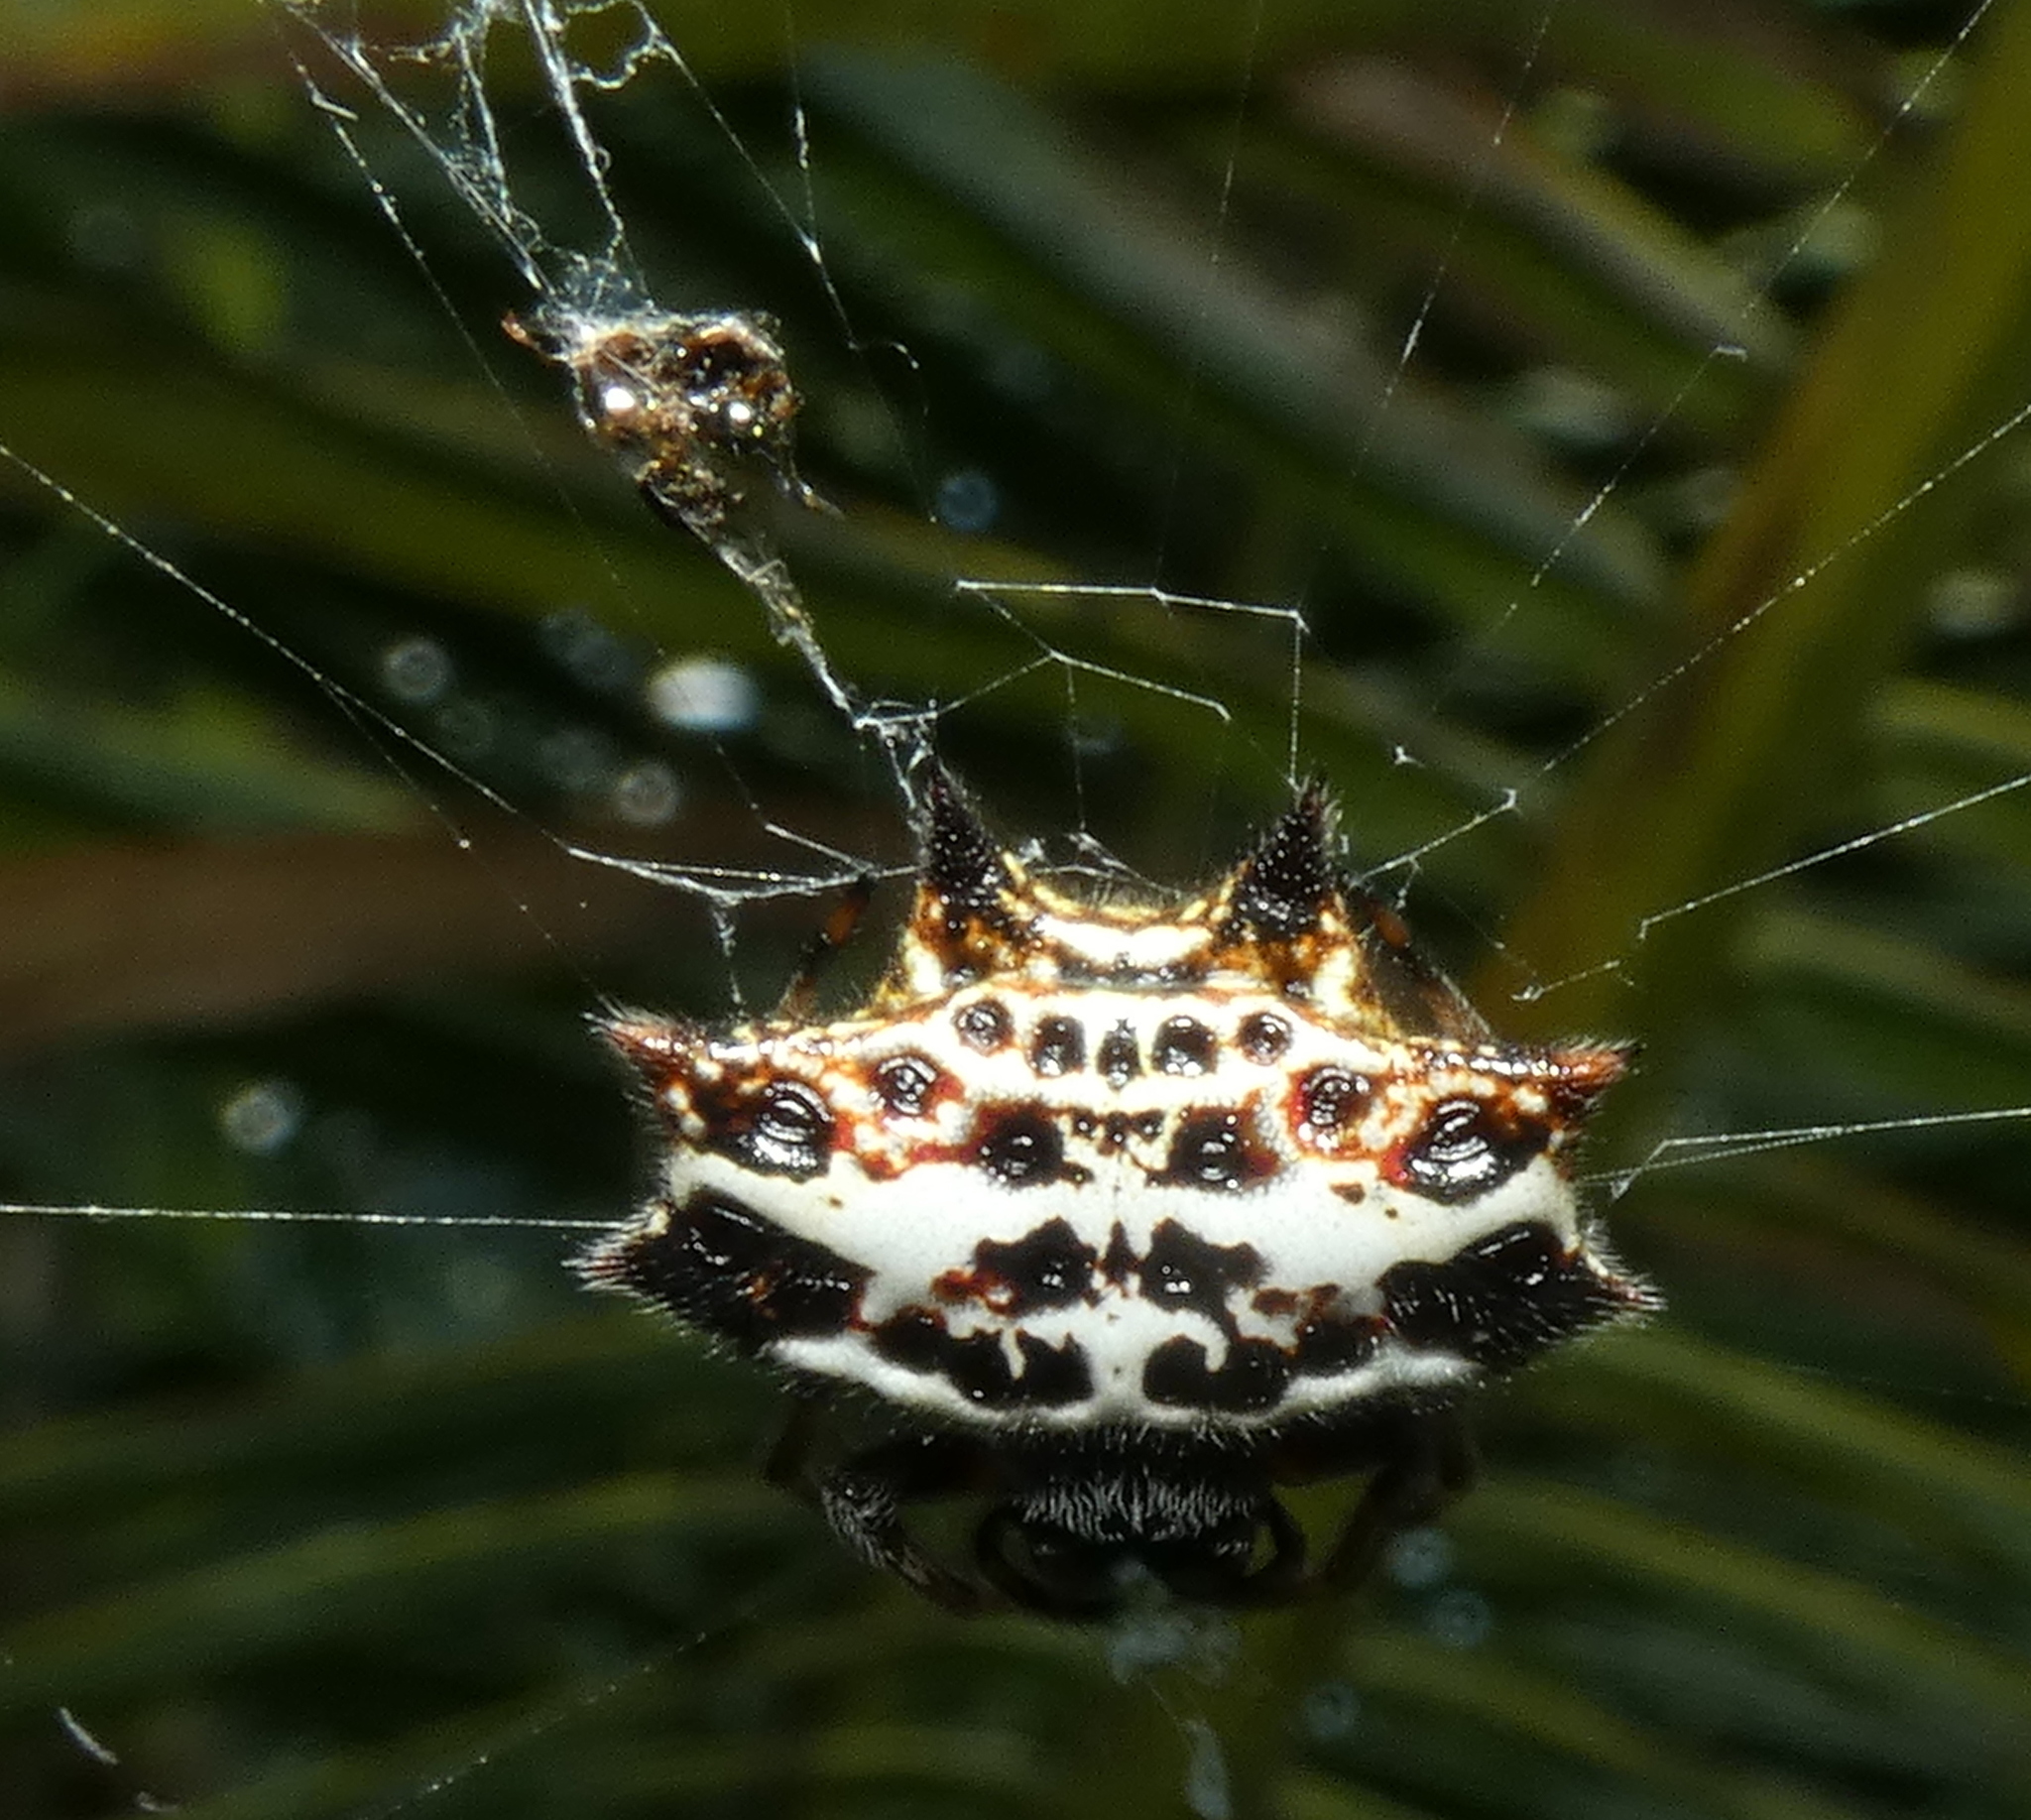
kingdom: Animalia
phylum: Arthropoda
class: Arachnida
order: Araneae
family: Araneidae
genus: Gasteracantha
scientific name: Gasteracantha cancriformis
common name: Orb weavers
